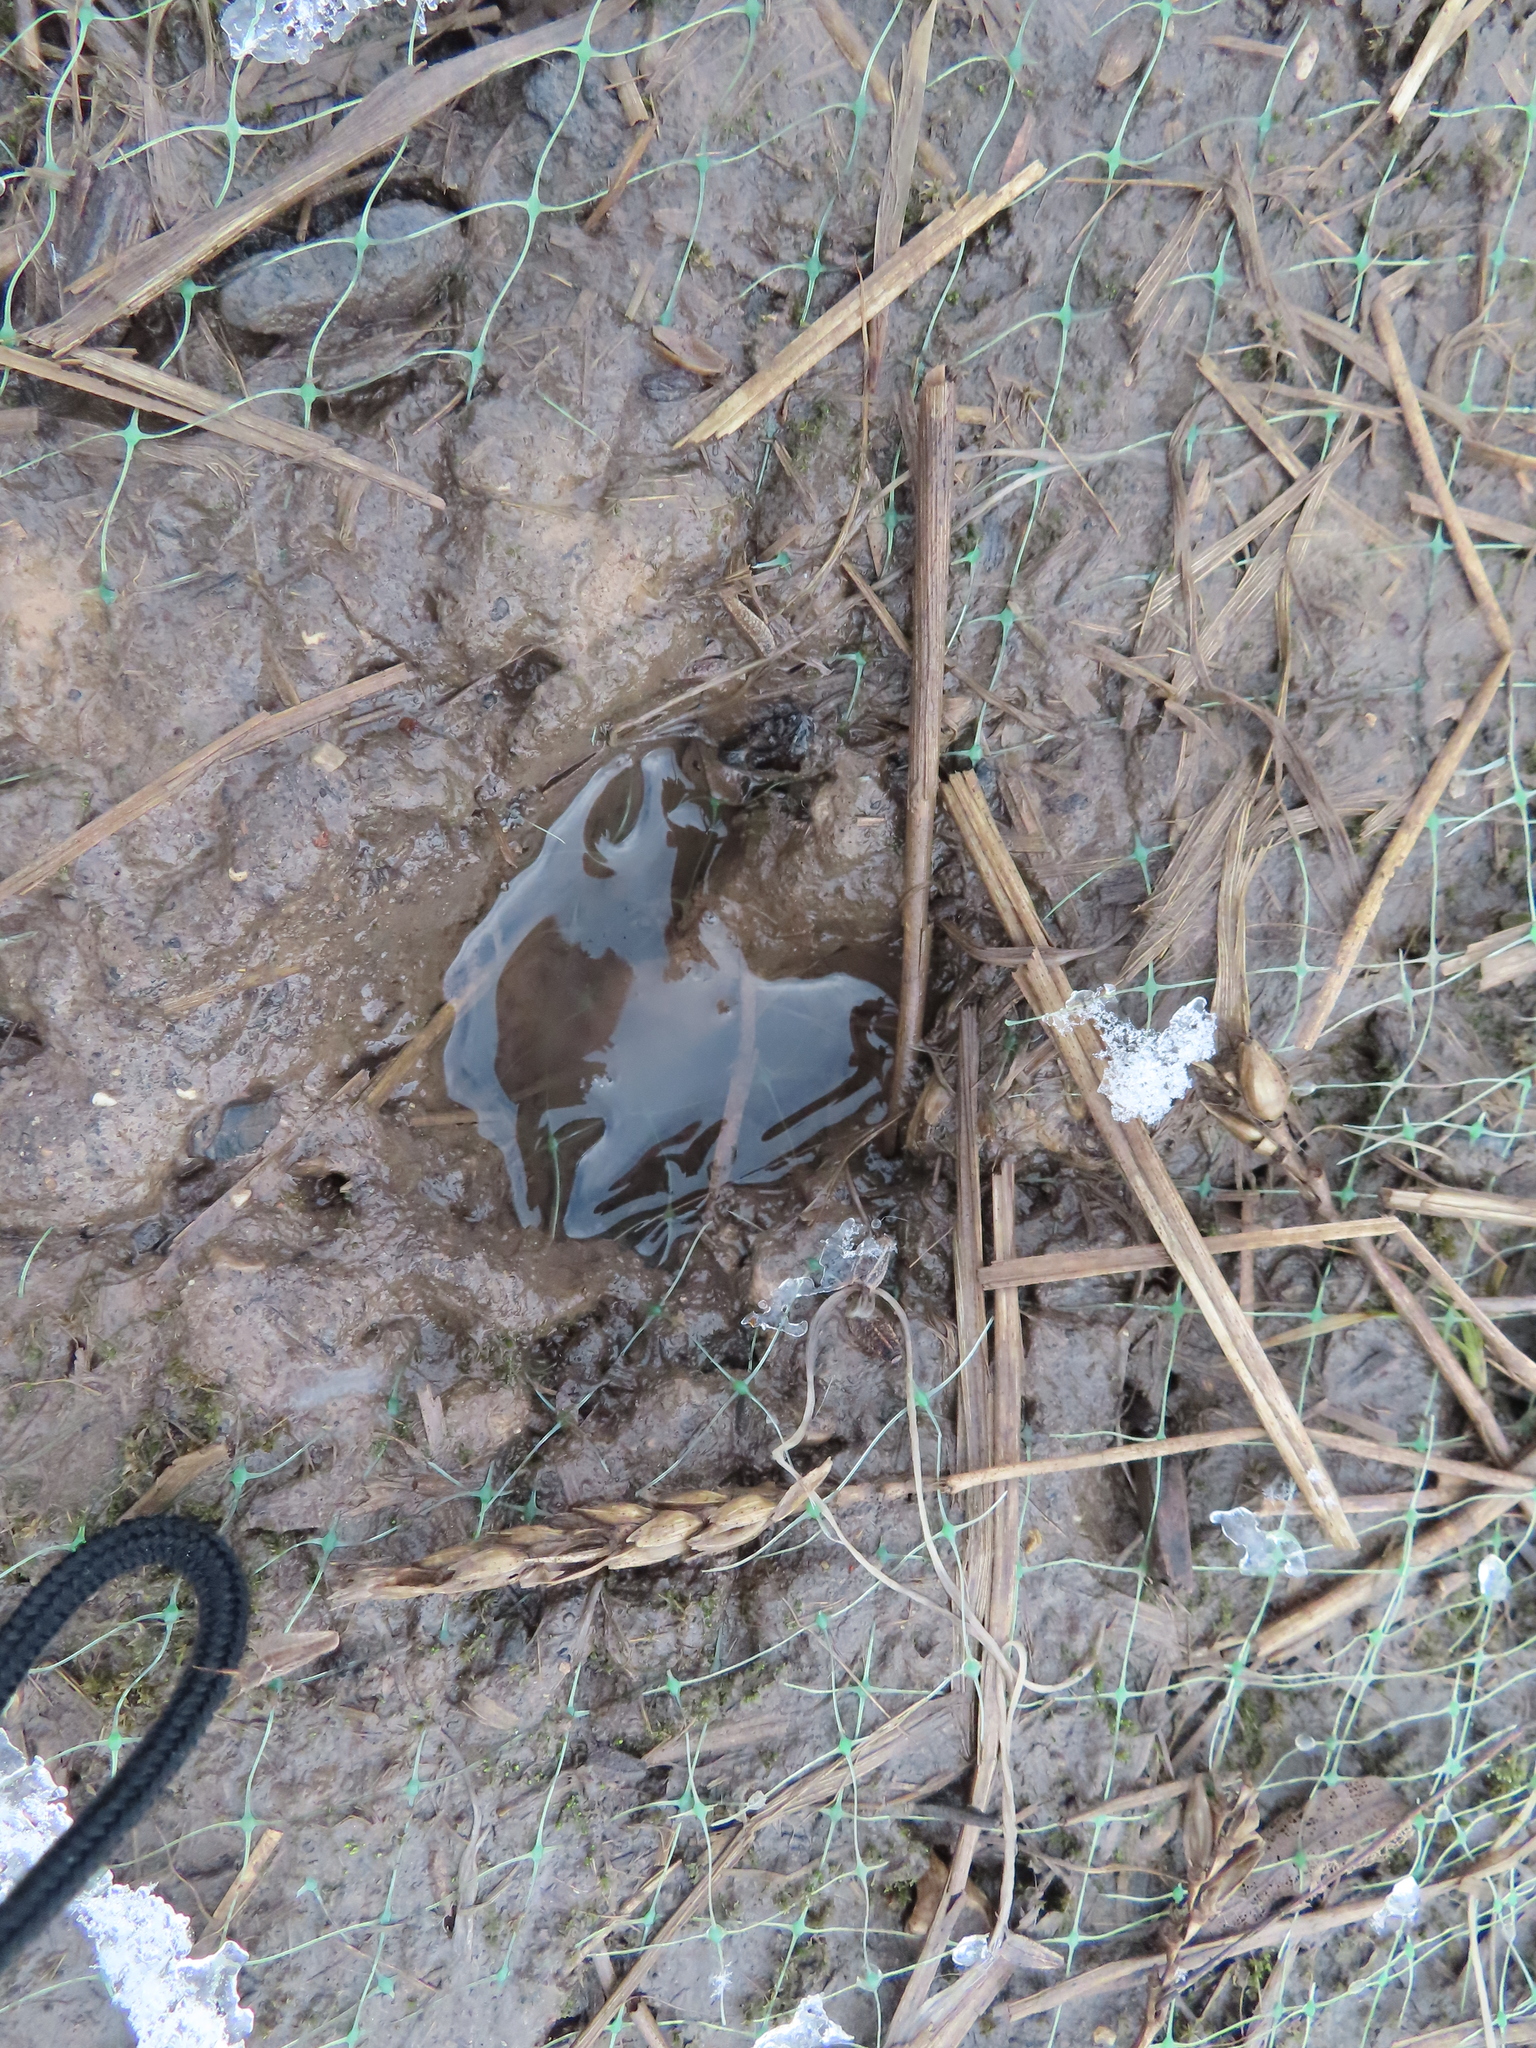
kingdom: Animalia
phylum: Chordata
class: Mammalia
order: Artiodactyla
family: Cervidae
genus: Odocoileus
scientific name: Odocoileus virginianus
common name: White-tailed deer
